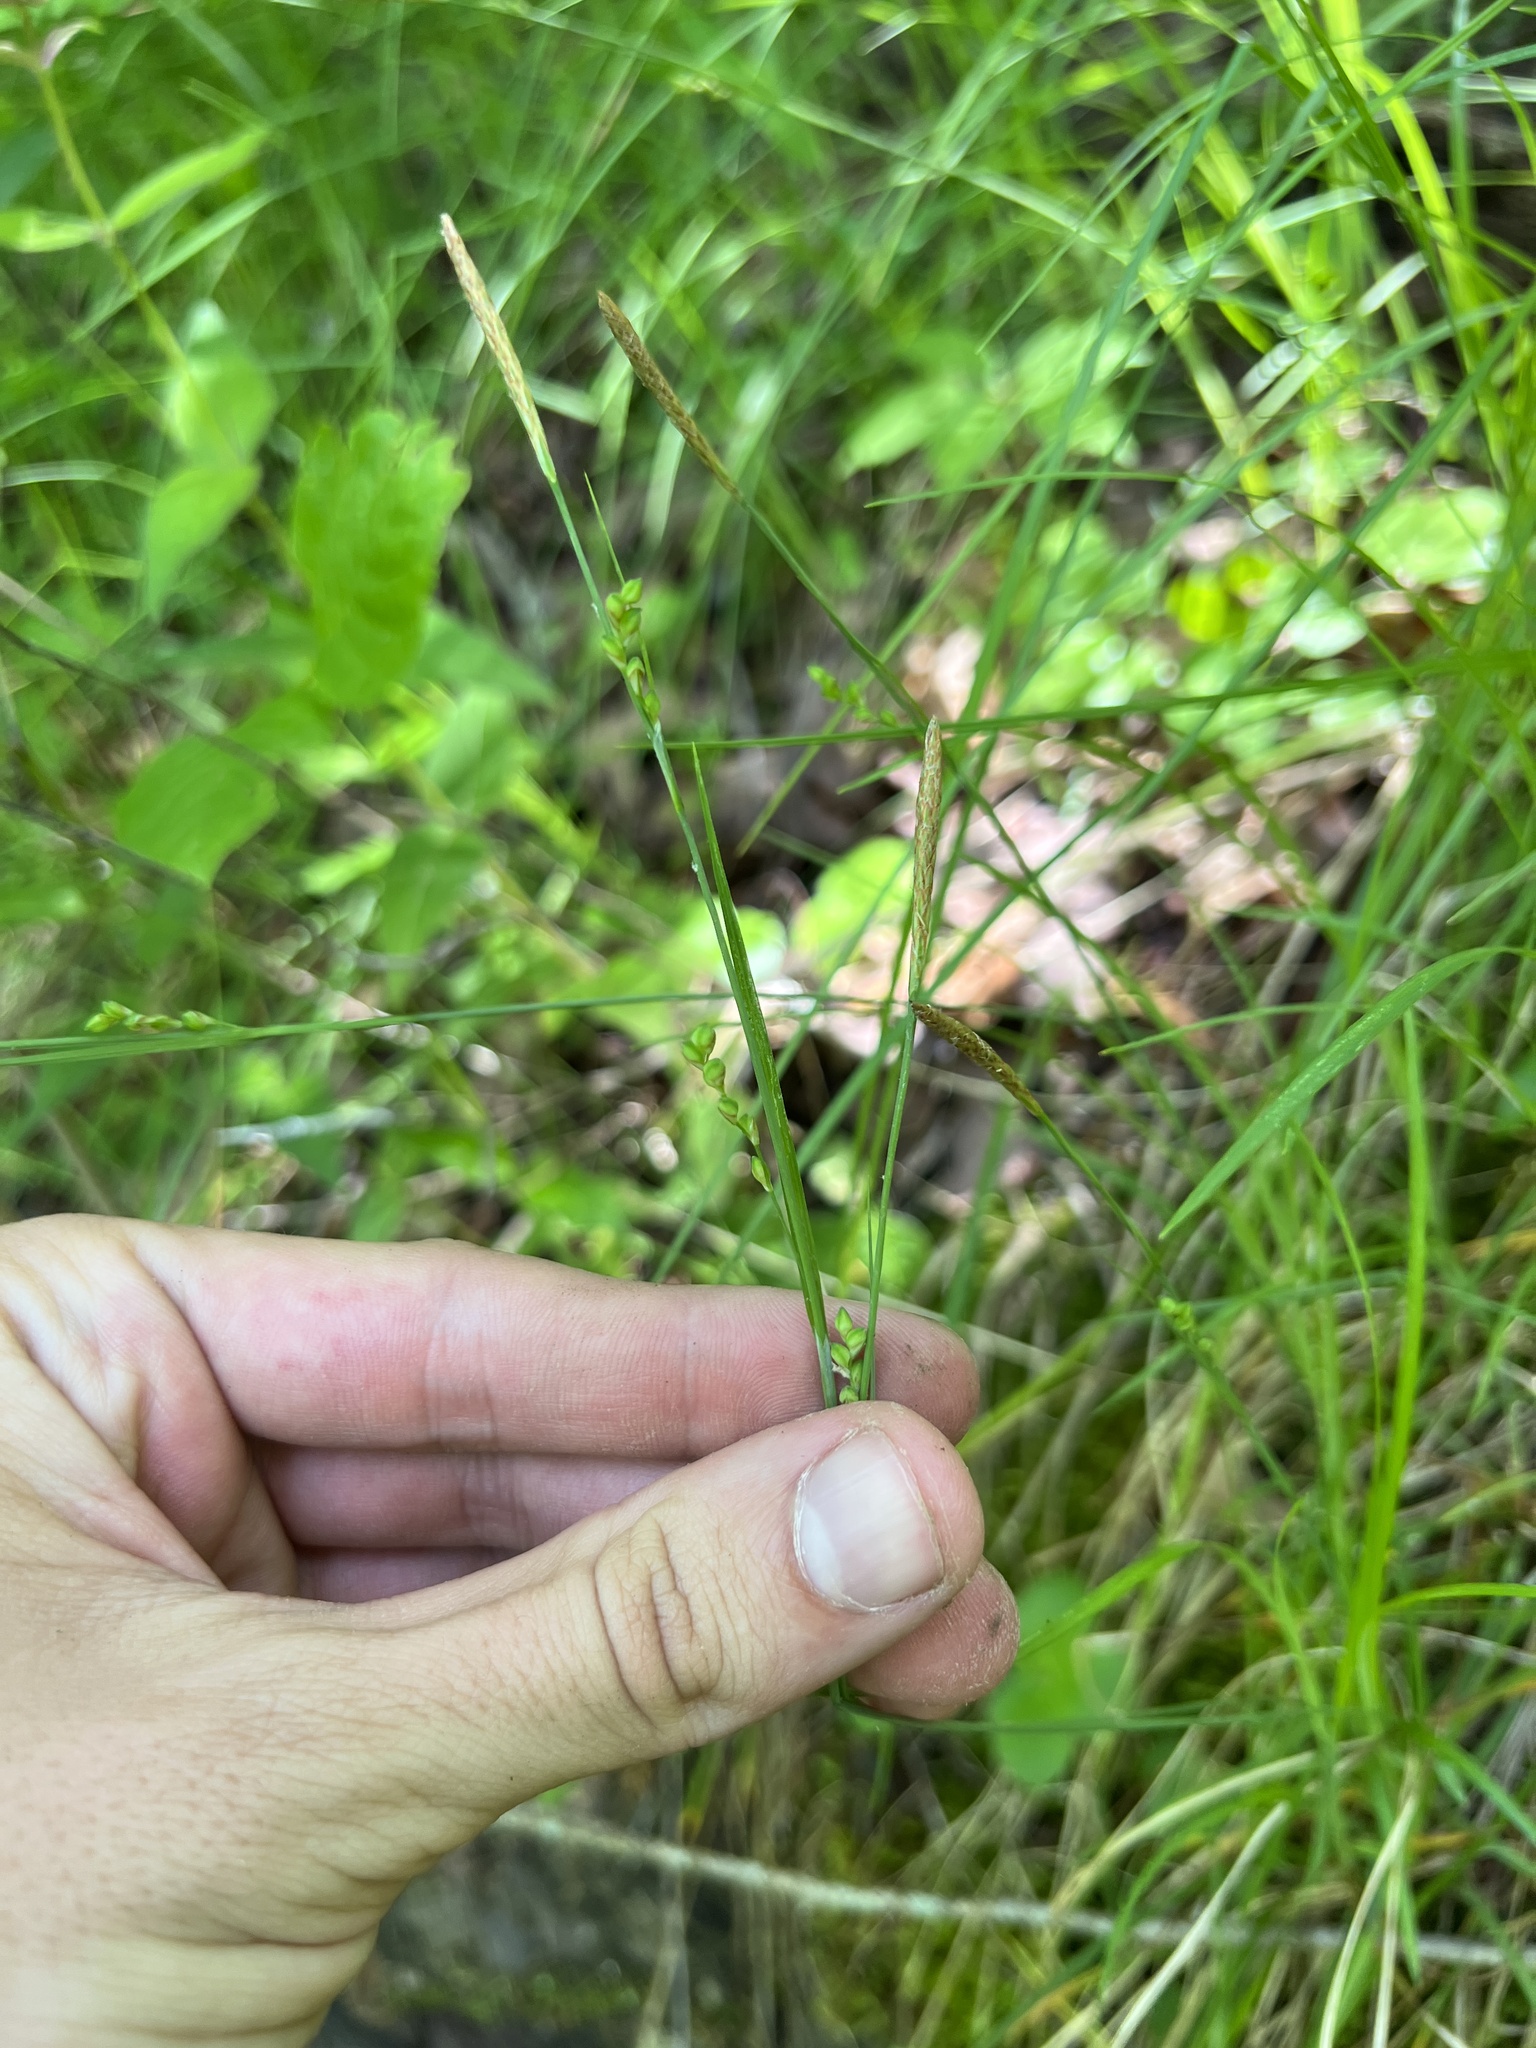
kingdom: Plantae
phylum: Tracheophyta
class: Liliopsida
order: Poales
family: Cyperaceae
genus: Carex
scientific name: Carex woodii
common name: Wood's sedge
